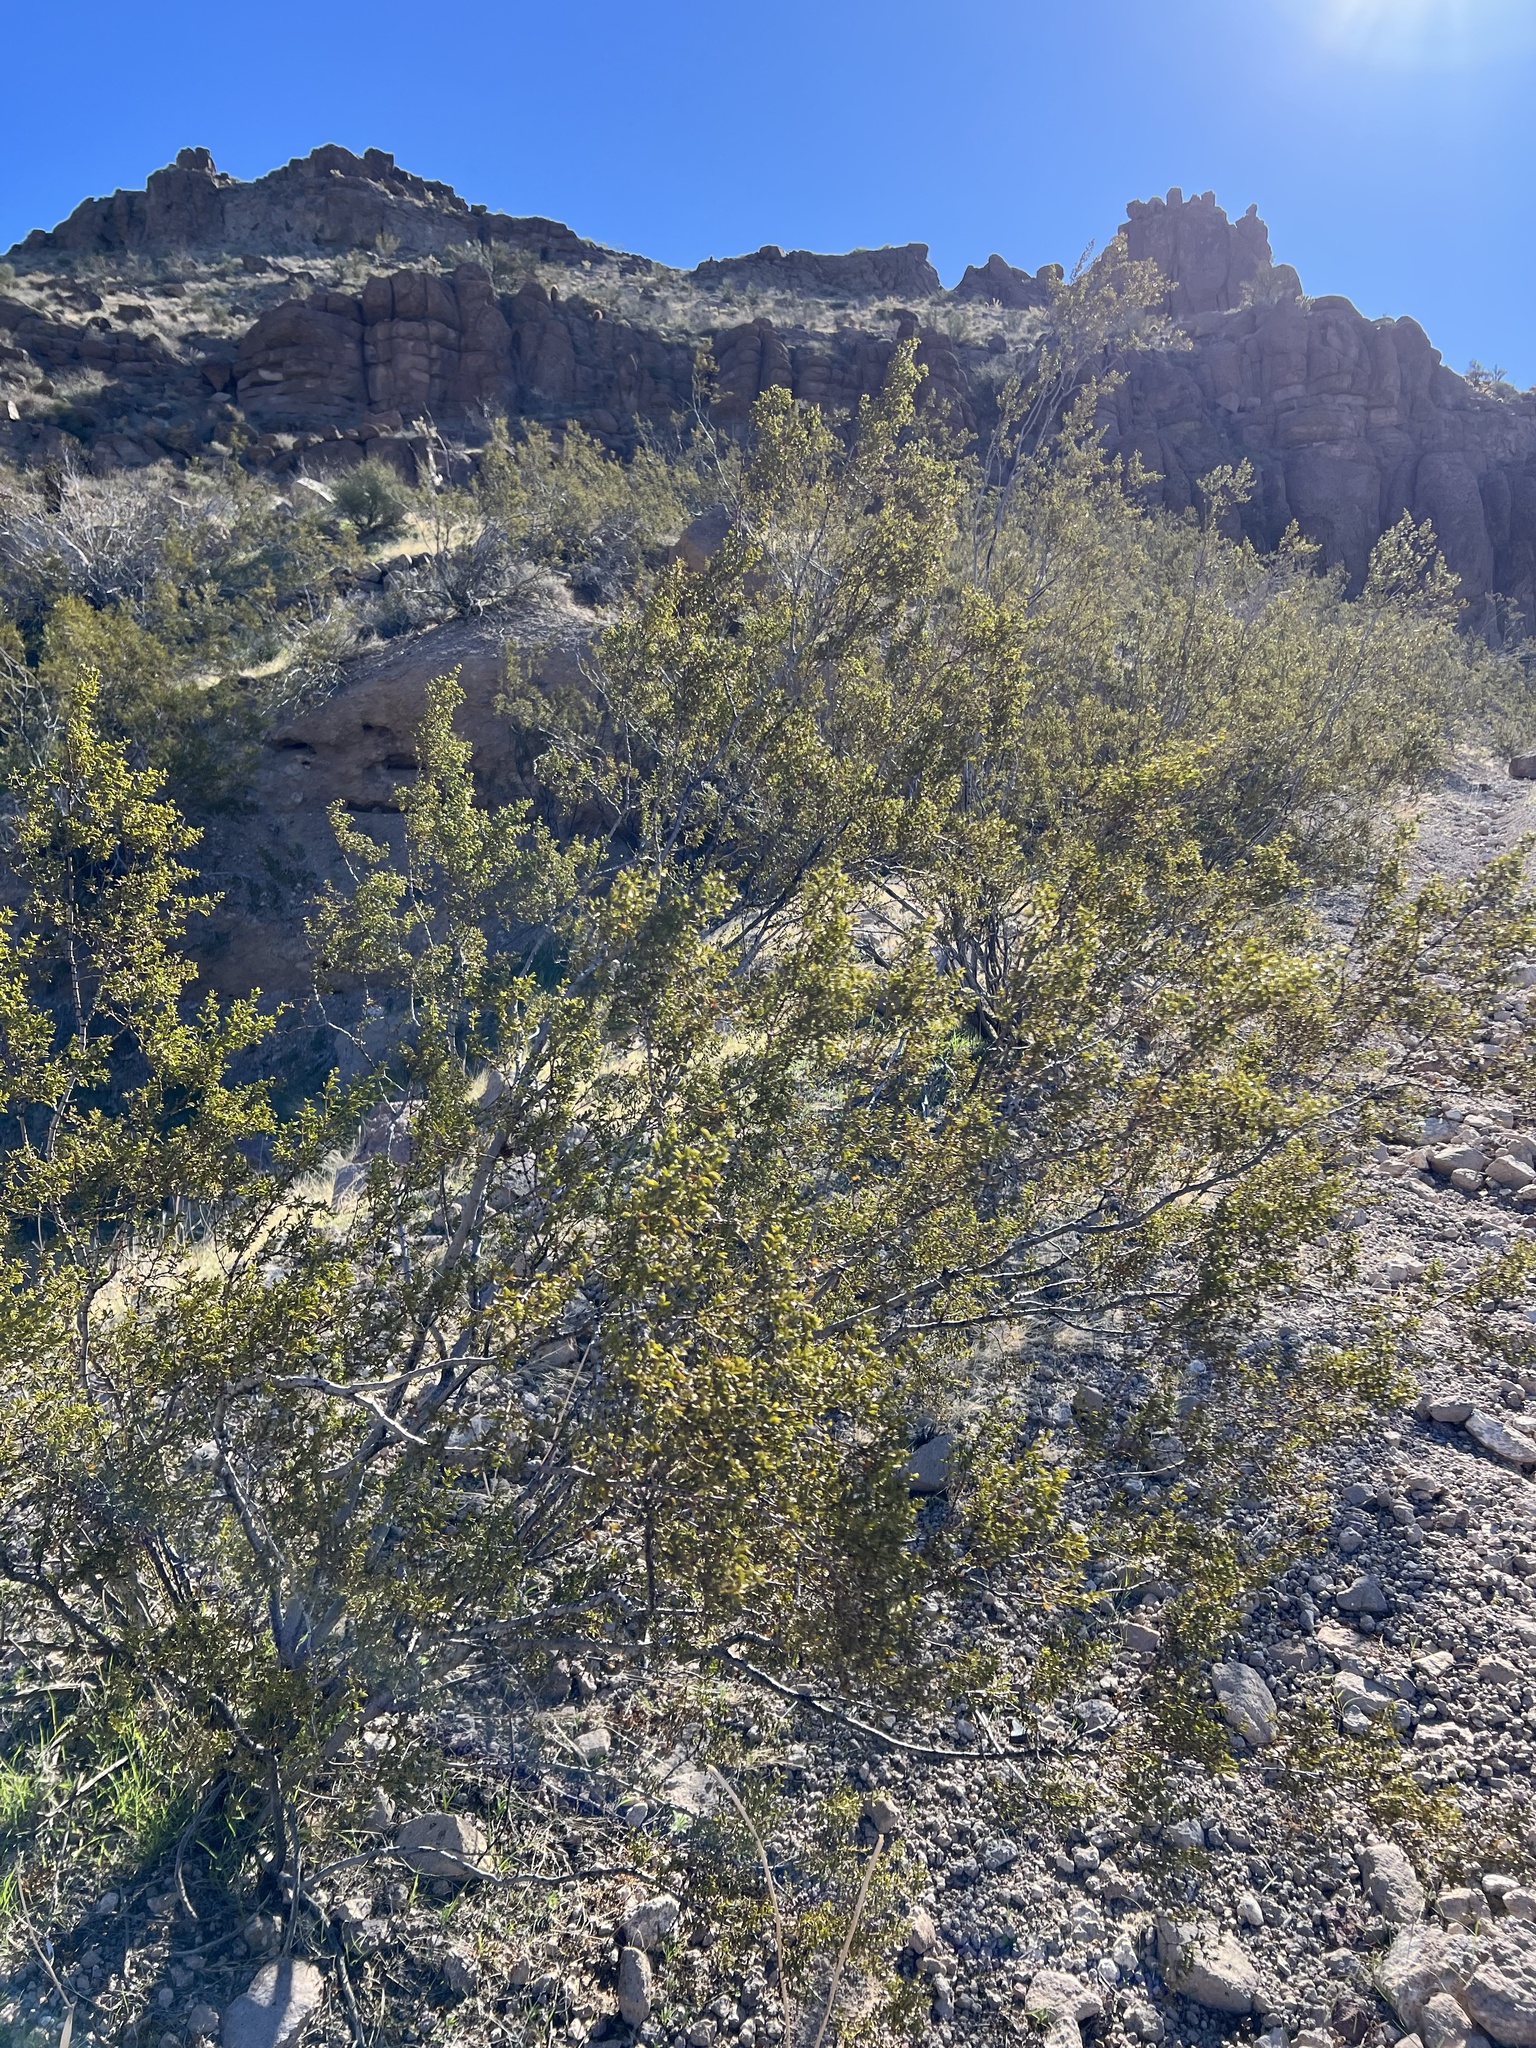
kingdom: Plantae
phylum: Tracheophyta
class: Magnoliopsida
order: Zygophyllales
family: Zygophyllaceae
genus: Larrea
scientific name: Larrea tridentata
